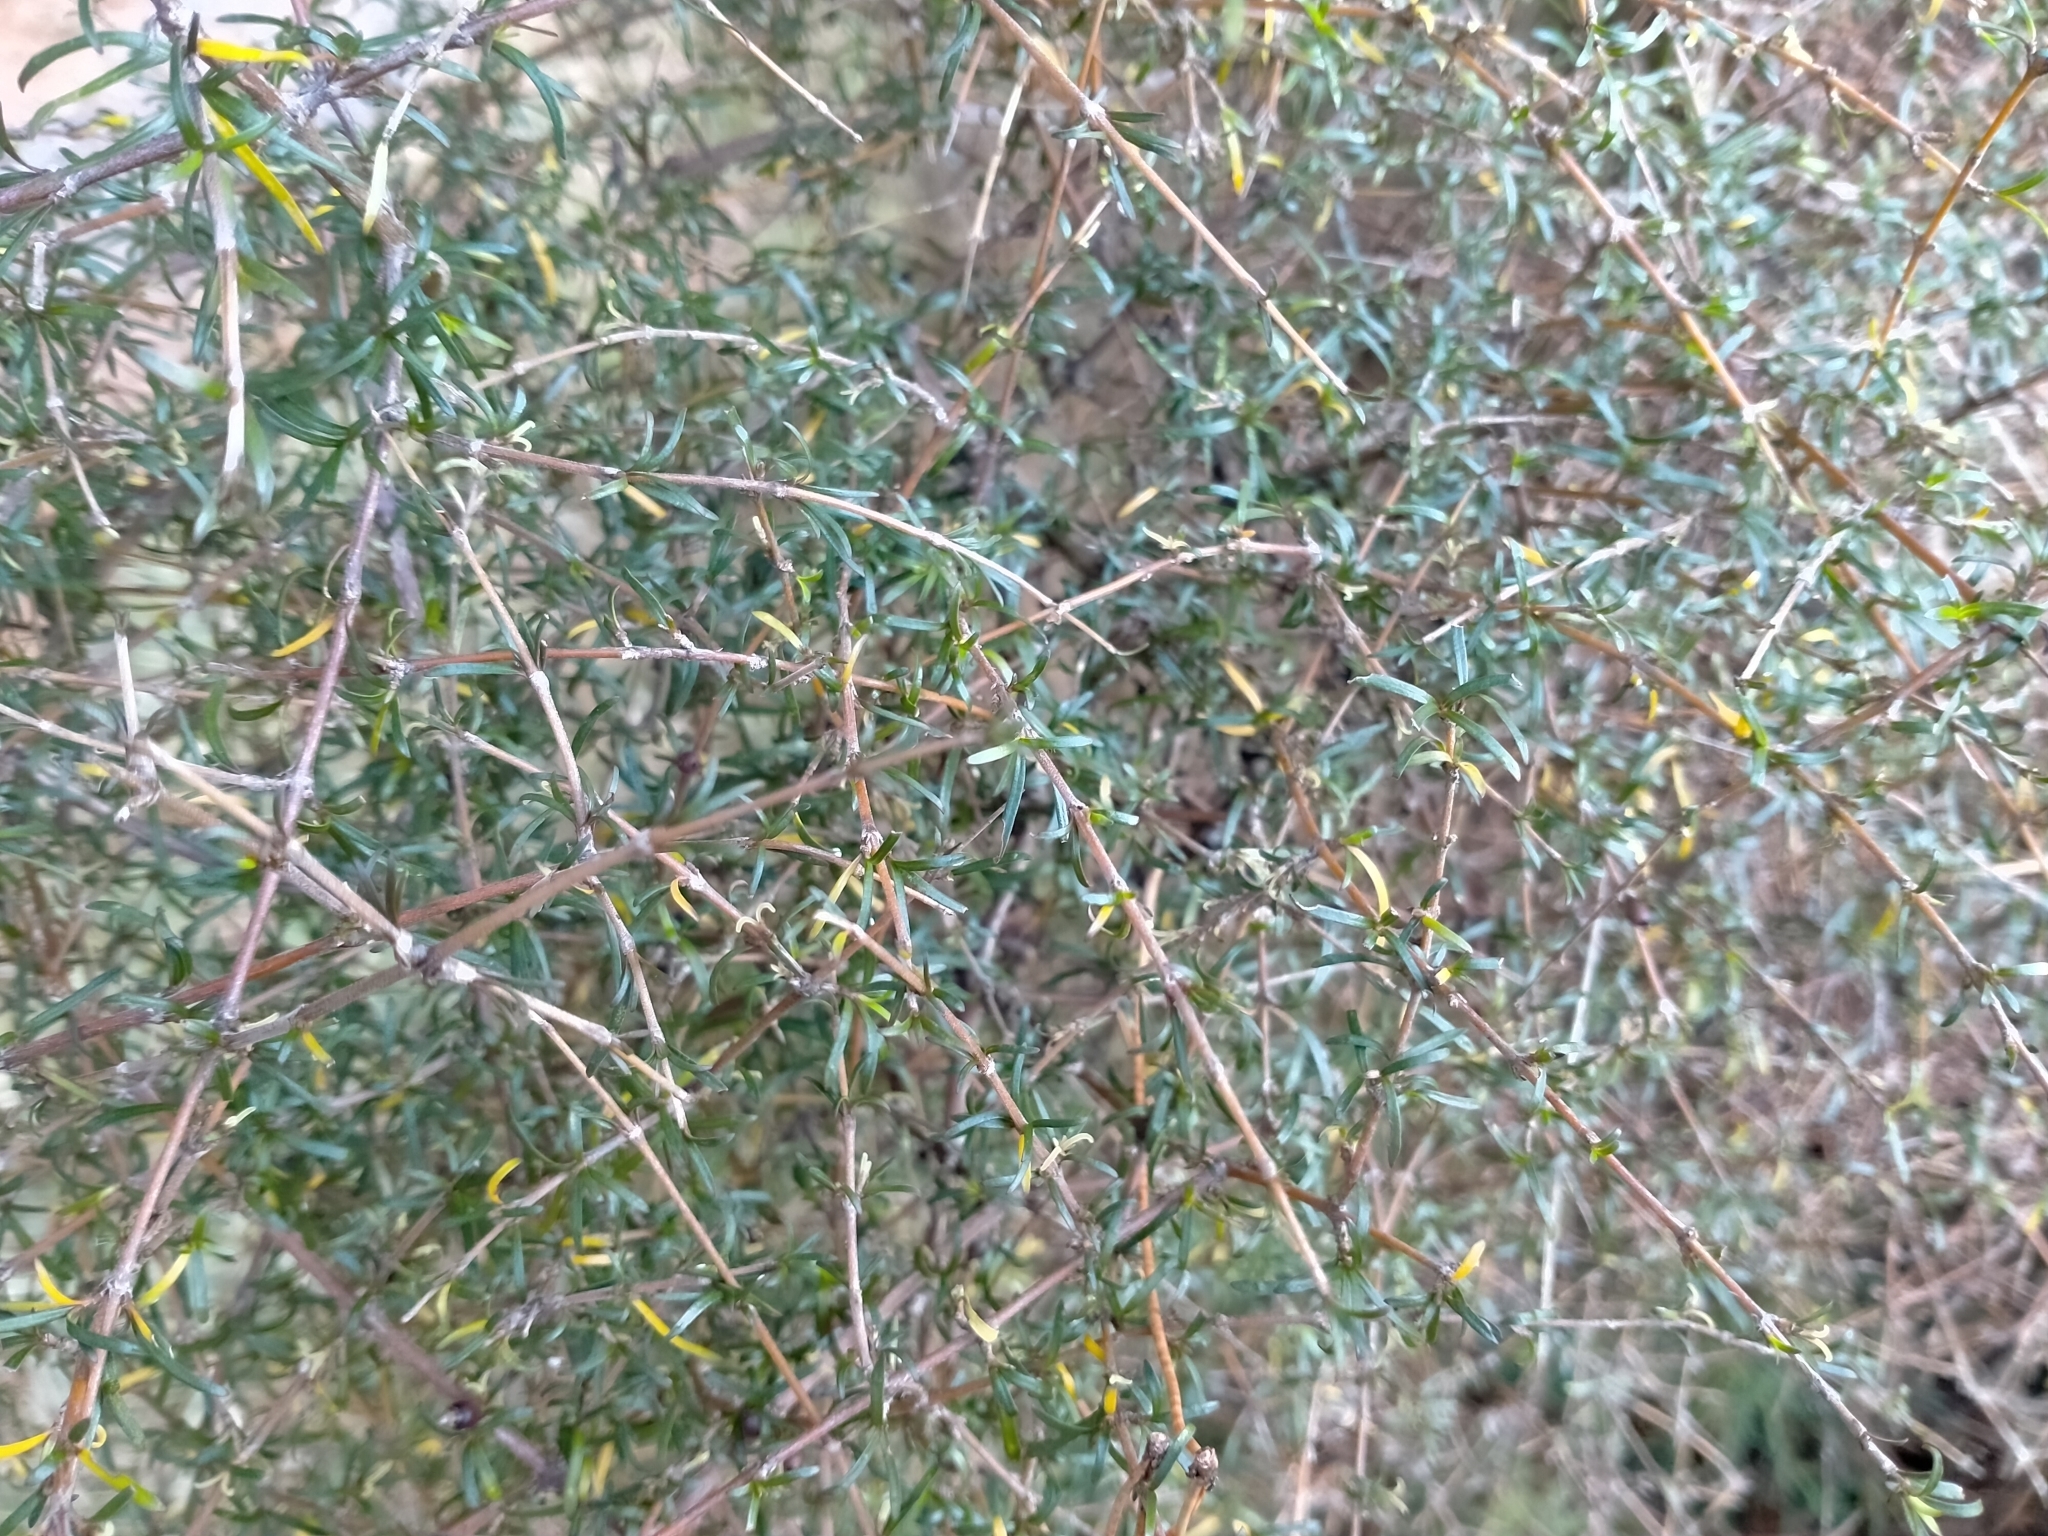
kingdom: Plantae
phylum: Tracheophyta
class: Magnoliopsida
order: Gentianales
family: Rubiaceae
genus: Coprosma
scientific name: Coprosma rugosa
